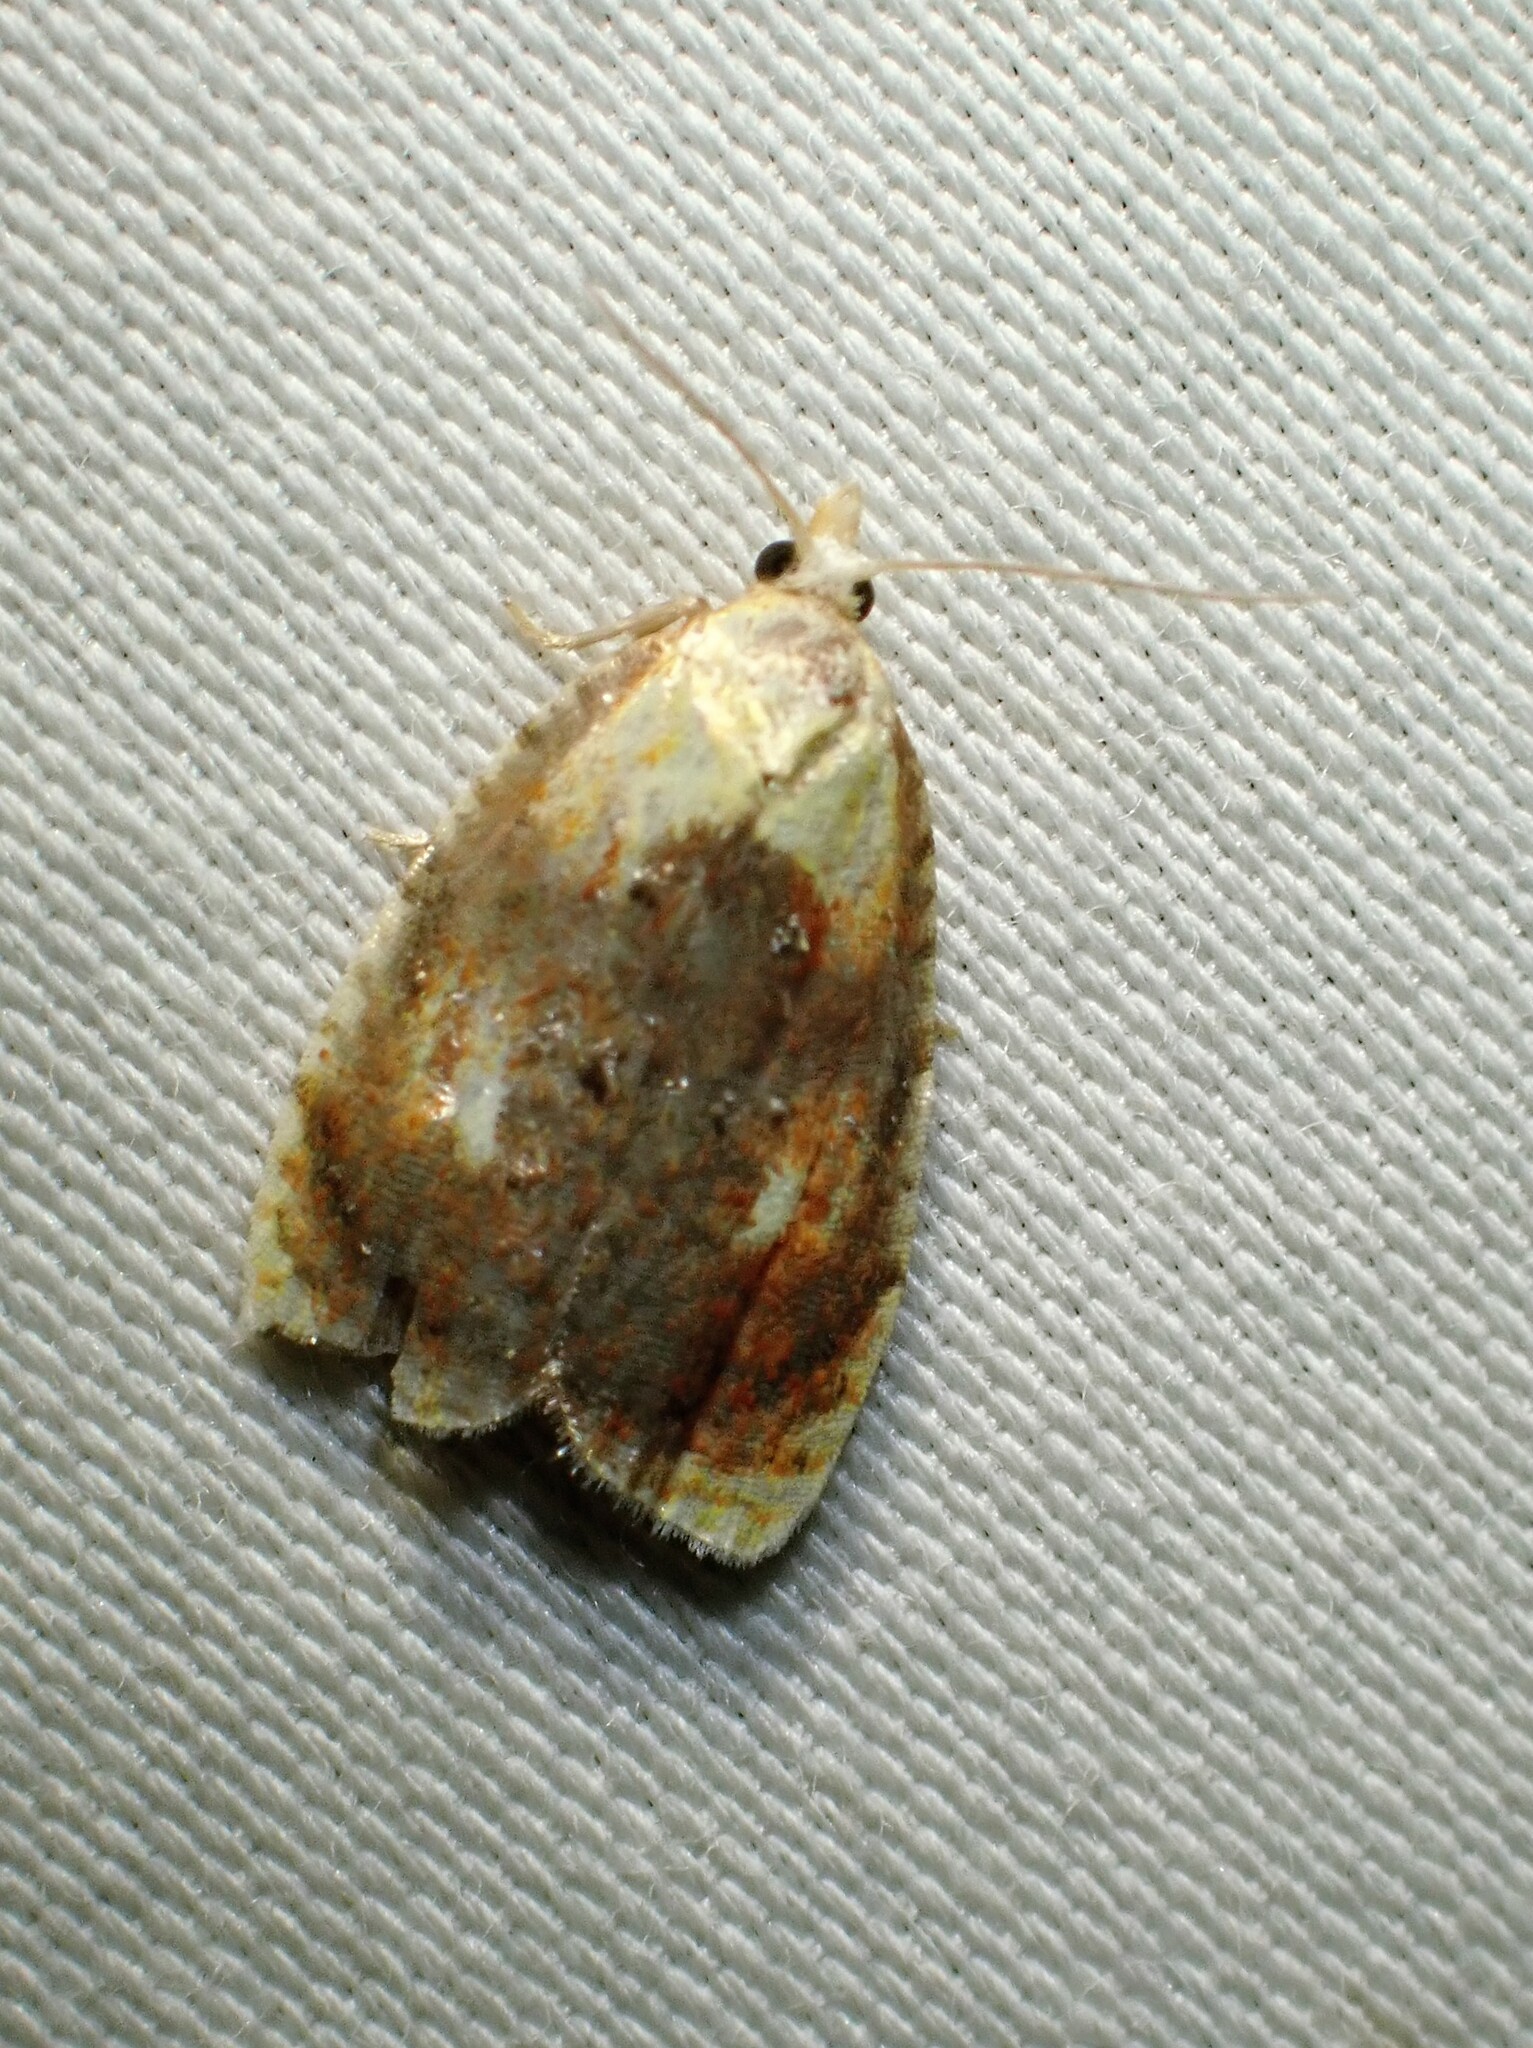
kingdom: Animalia
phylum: Arthropoda
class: Insecta
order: Lepidoptera
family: Tortricidae
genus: Acleris
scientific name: Acleris curvalana
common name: Blueberry leaftier moth
